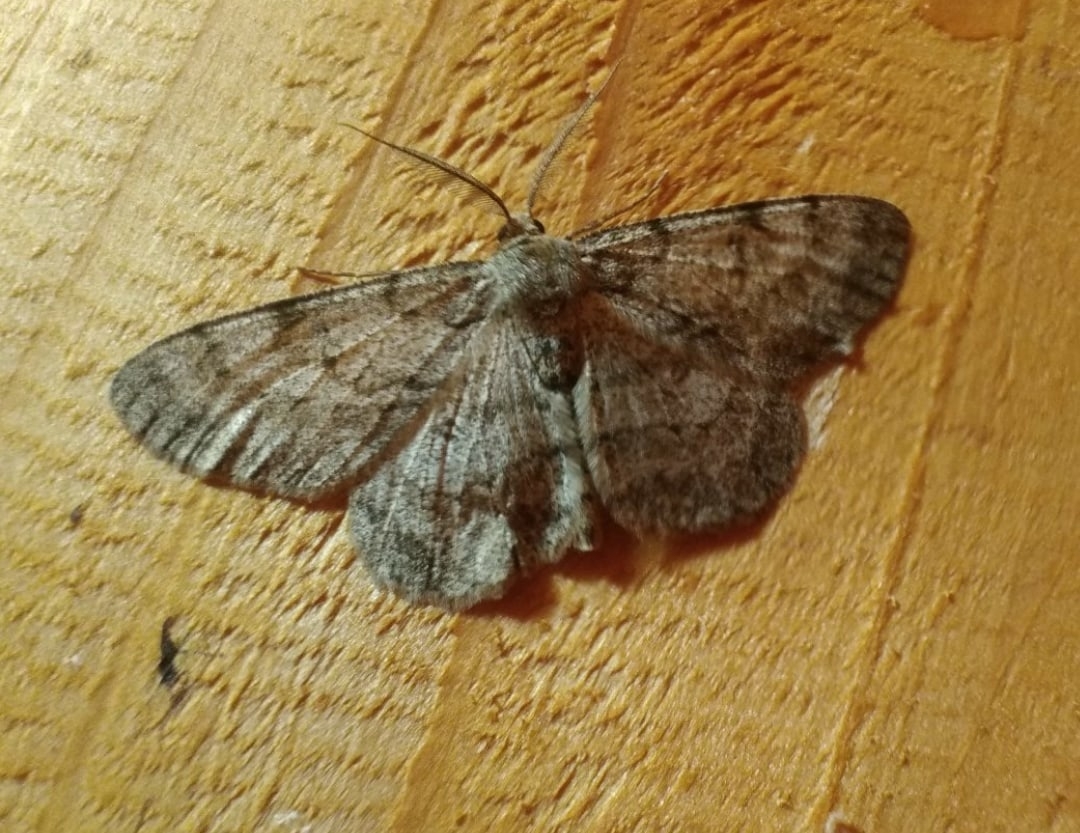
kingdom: Animalia
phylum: Arthropoda
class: Insecta
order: Lepidoptera
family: Geometridae
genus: Hypomecis
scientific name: Hypomecis punctinalis
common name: Pale oak beauty
